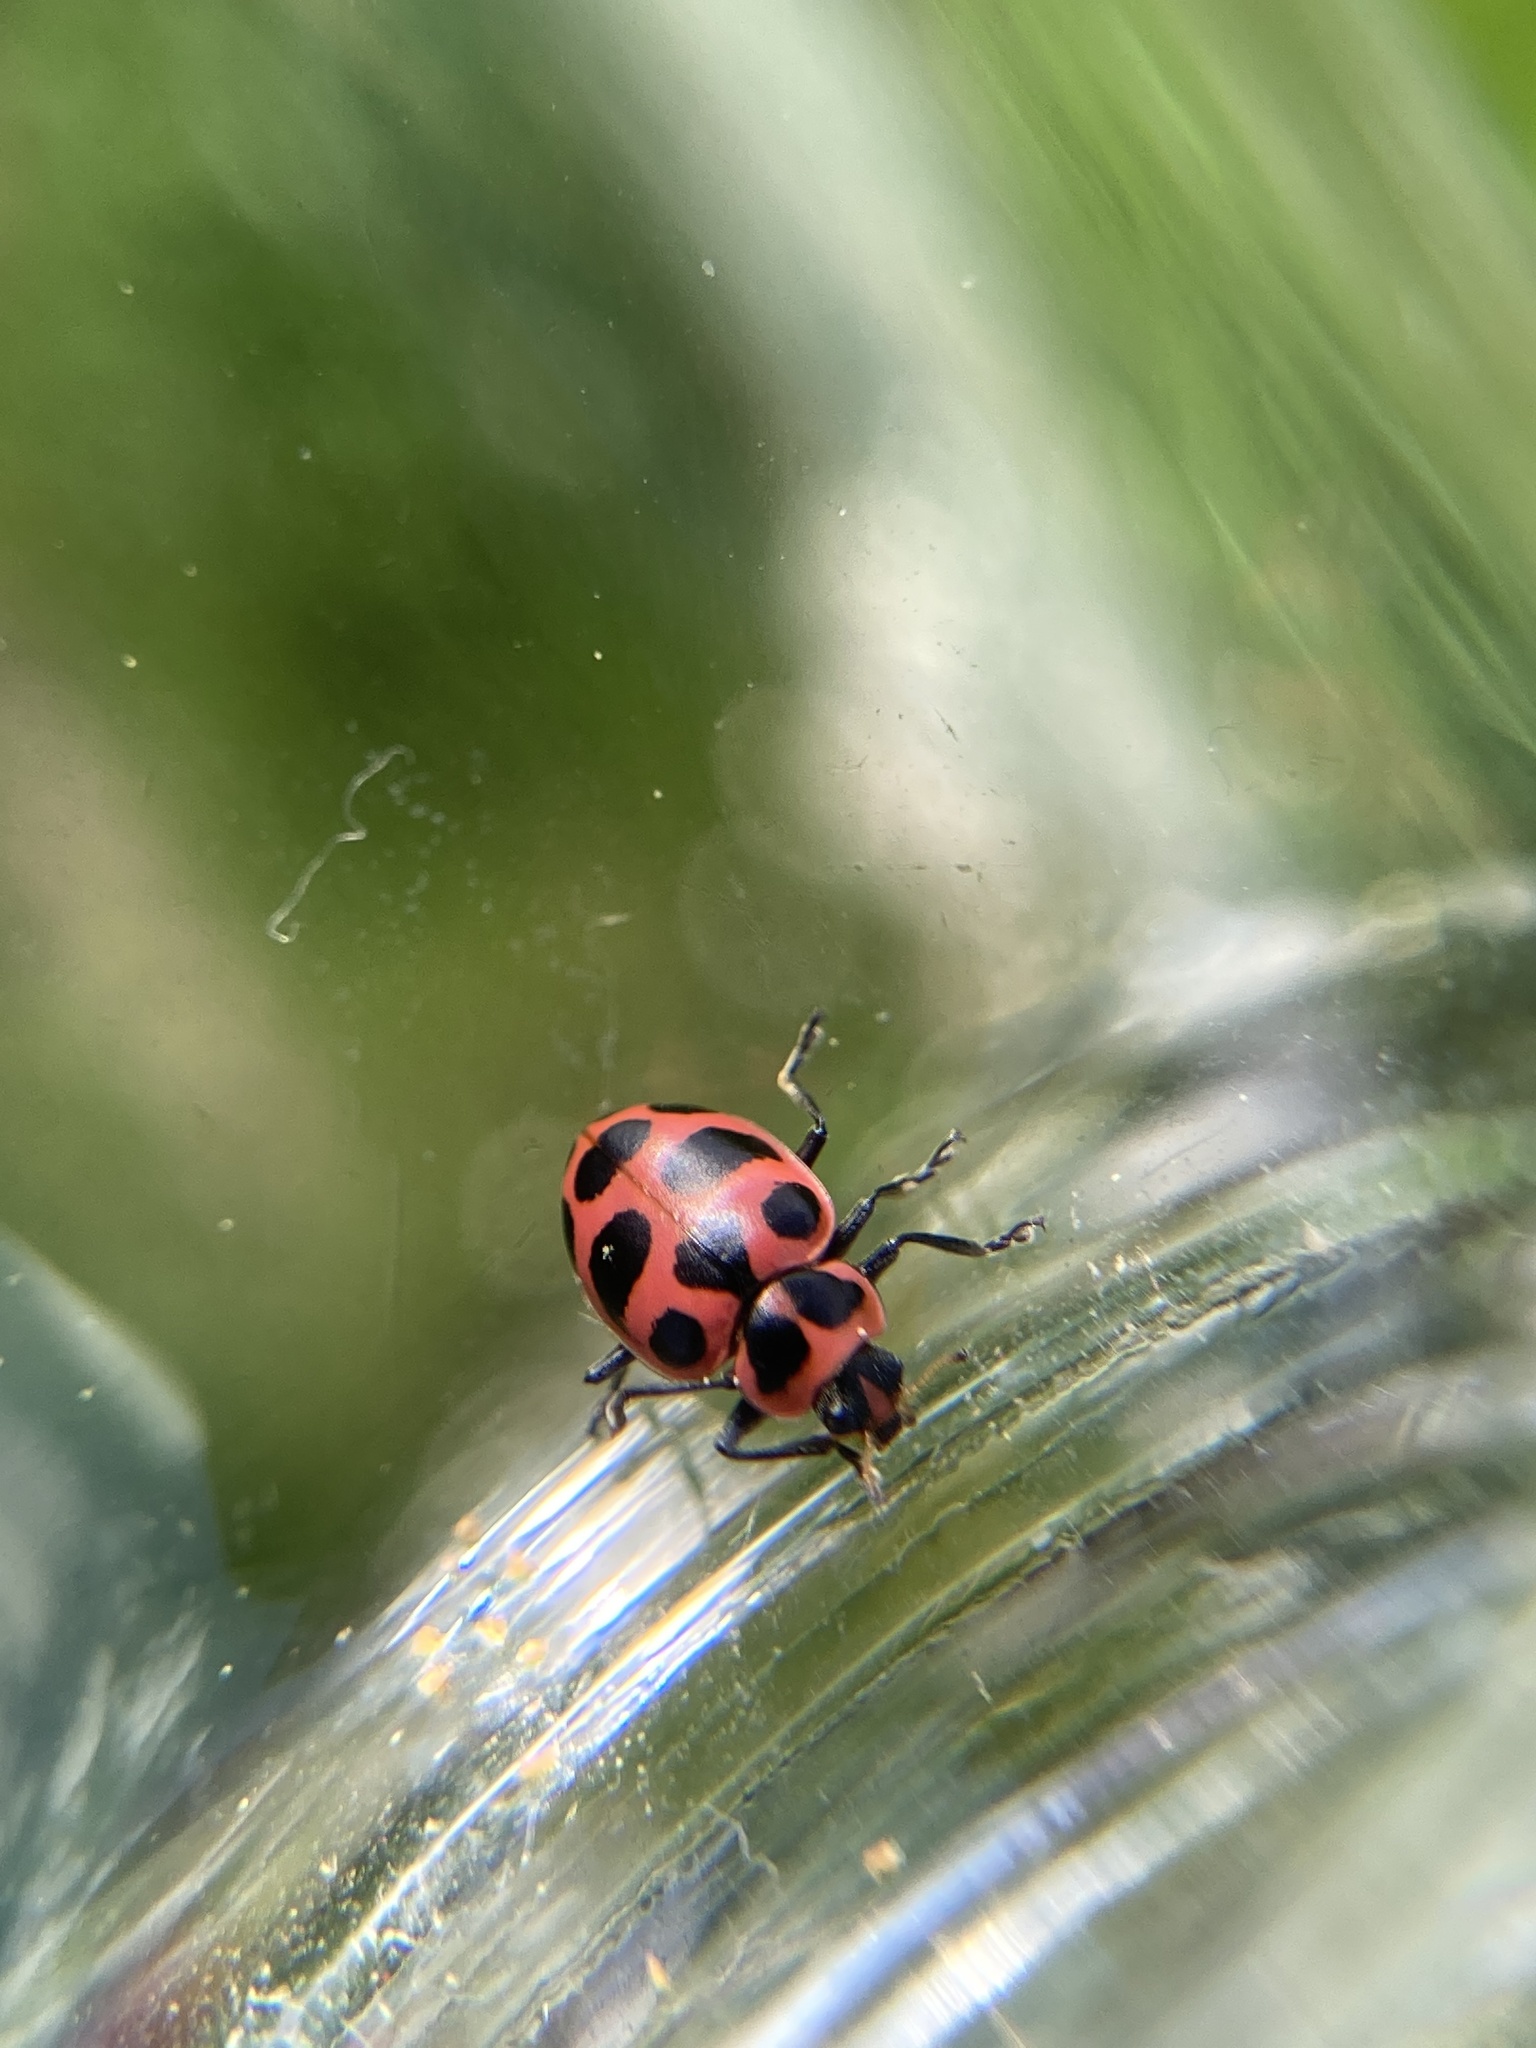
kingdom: Animalia
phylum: Arthropoda
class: Insecta
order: Coleoptera
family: Coccinellidae
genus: Coleomegilla
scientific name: Coleomegilla maculata
